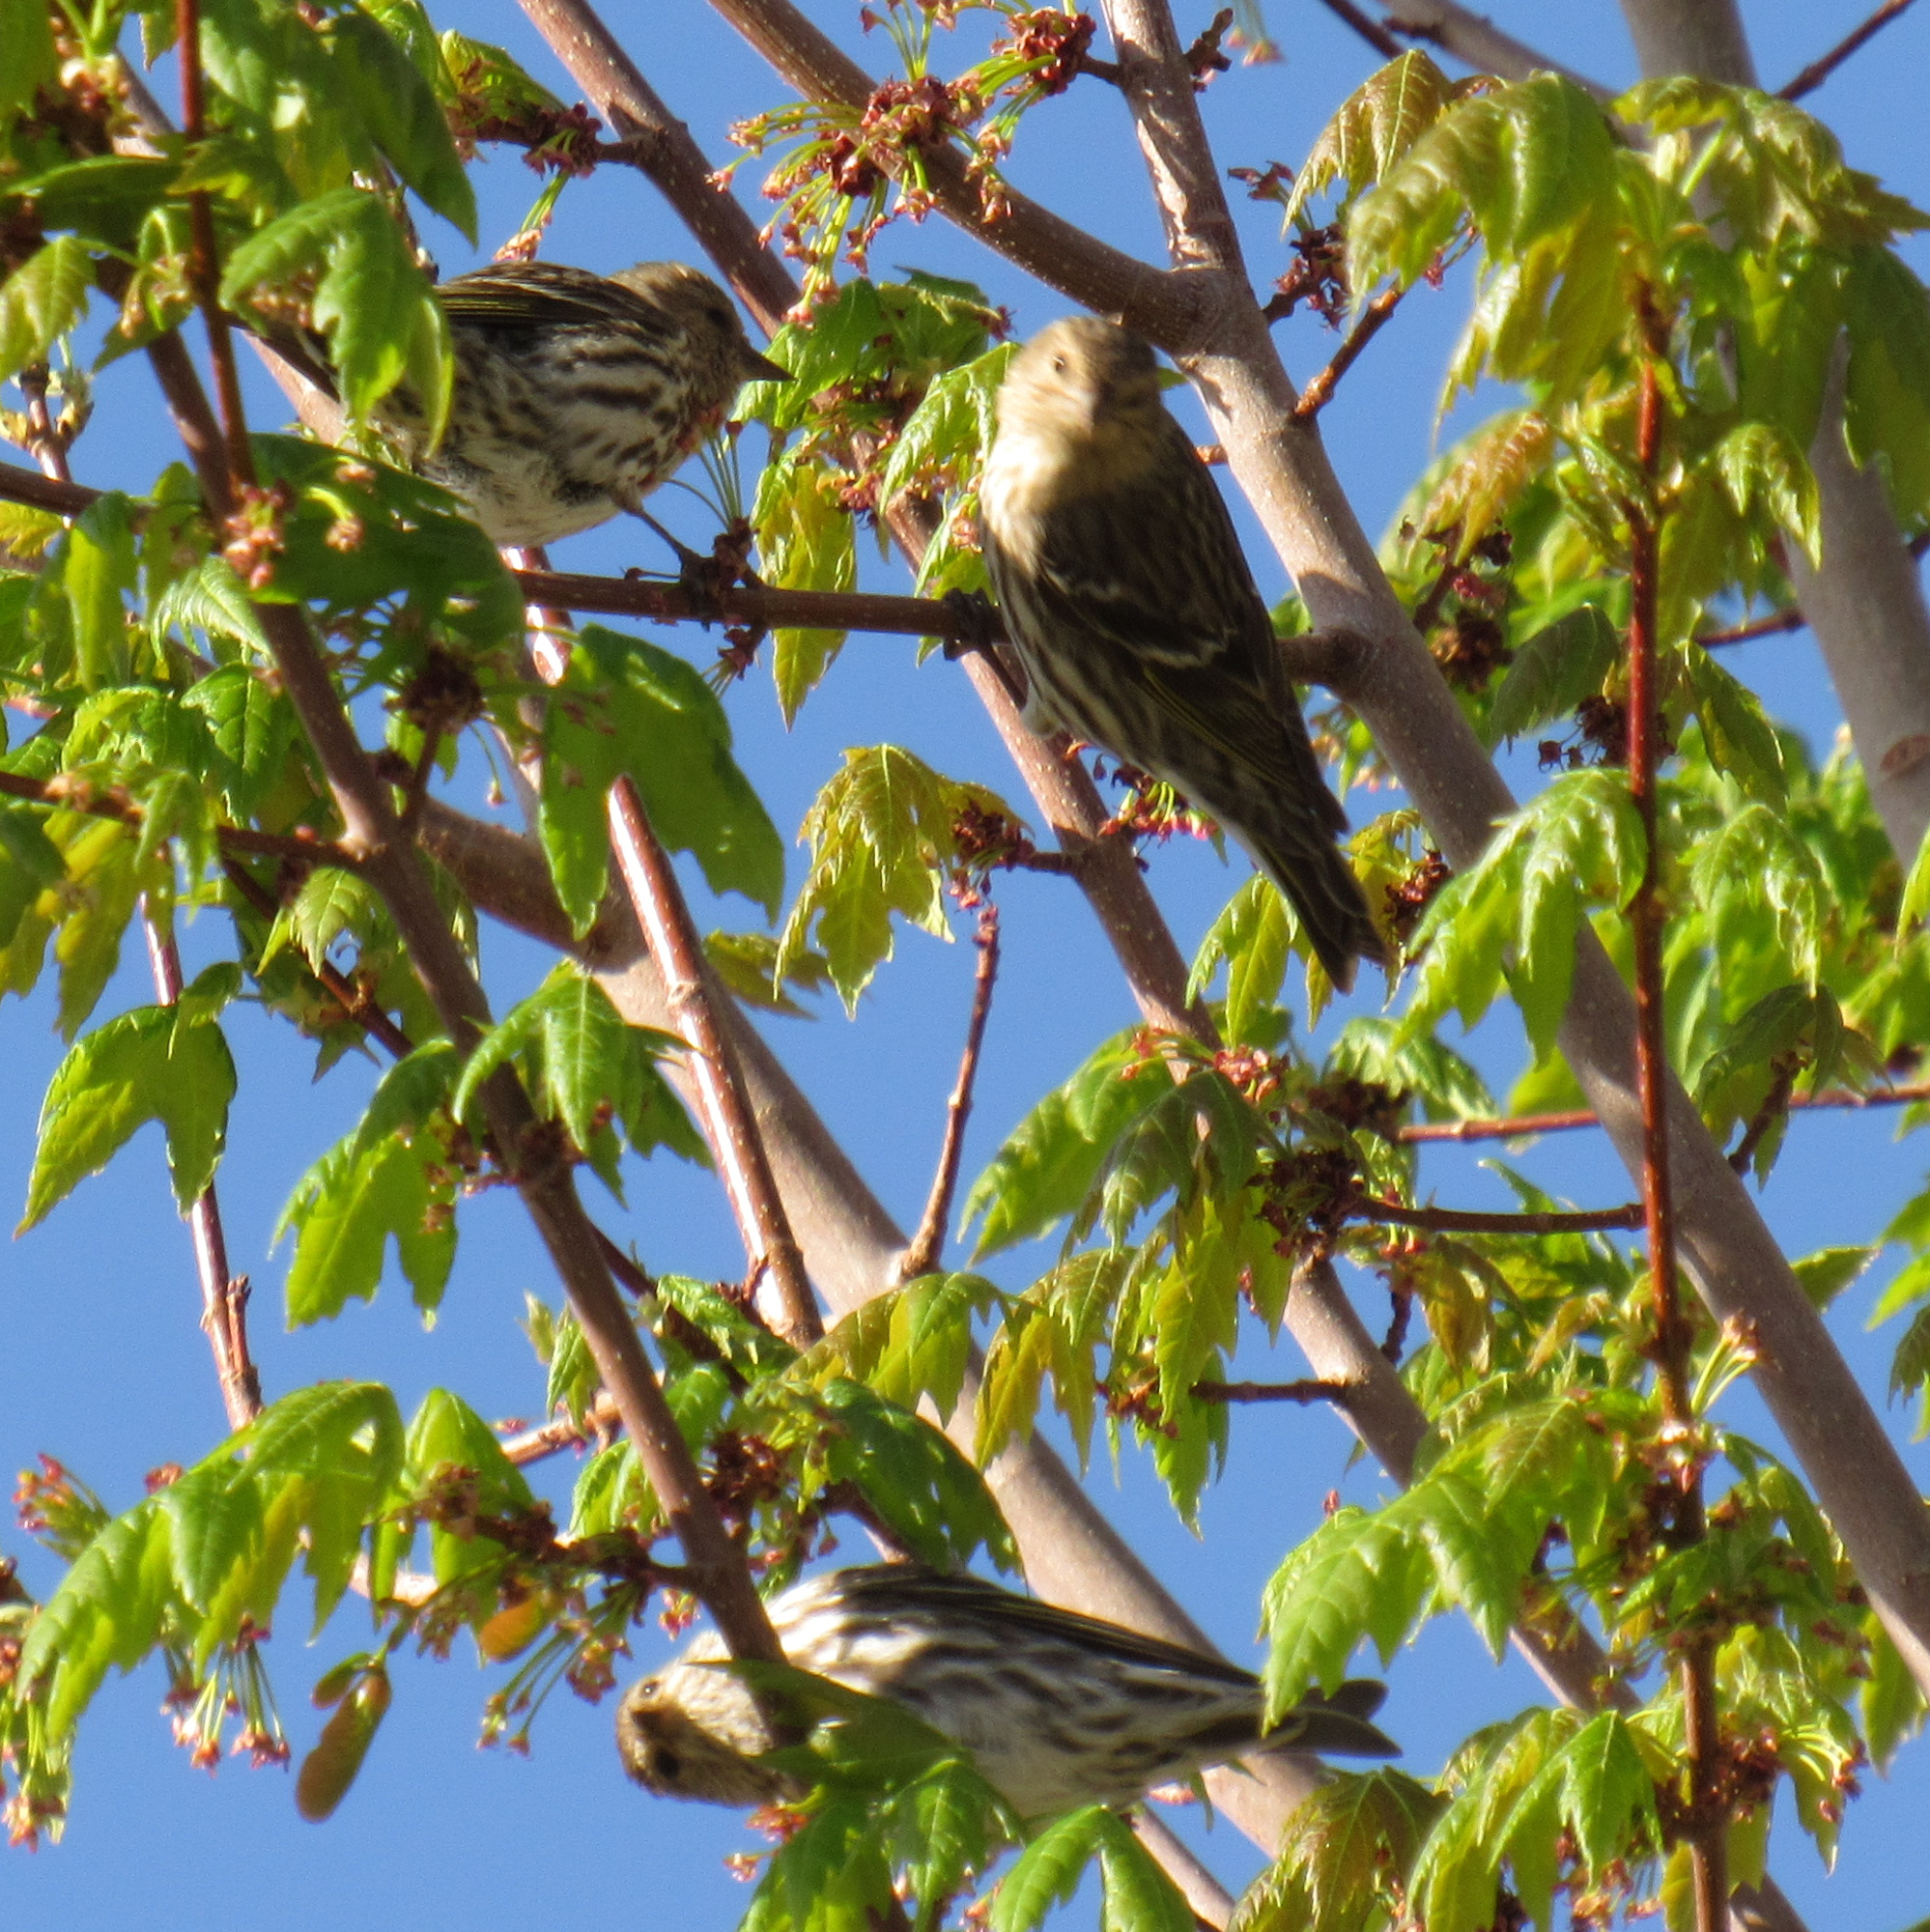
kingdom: Animalia
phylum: Chordata
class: Aves
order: Passeriformes
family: Fringillidae
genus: Spinus
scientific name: Spinus pinus
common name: Pine siskin
